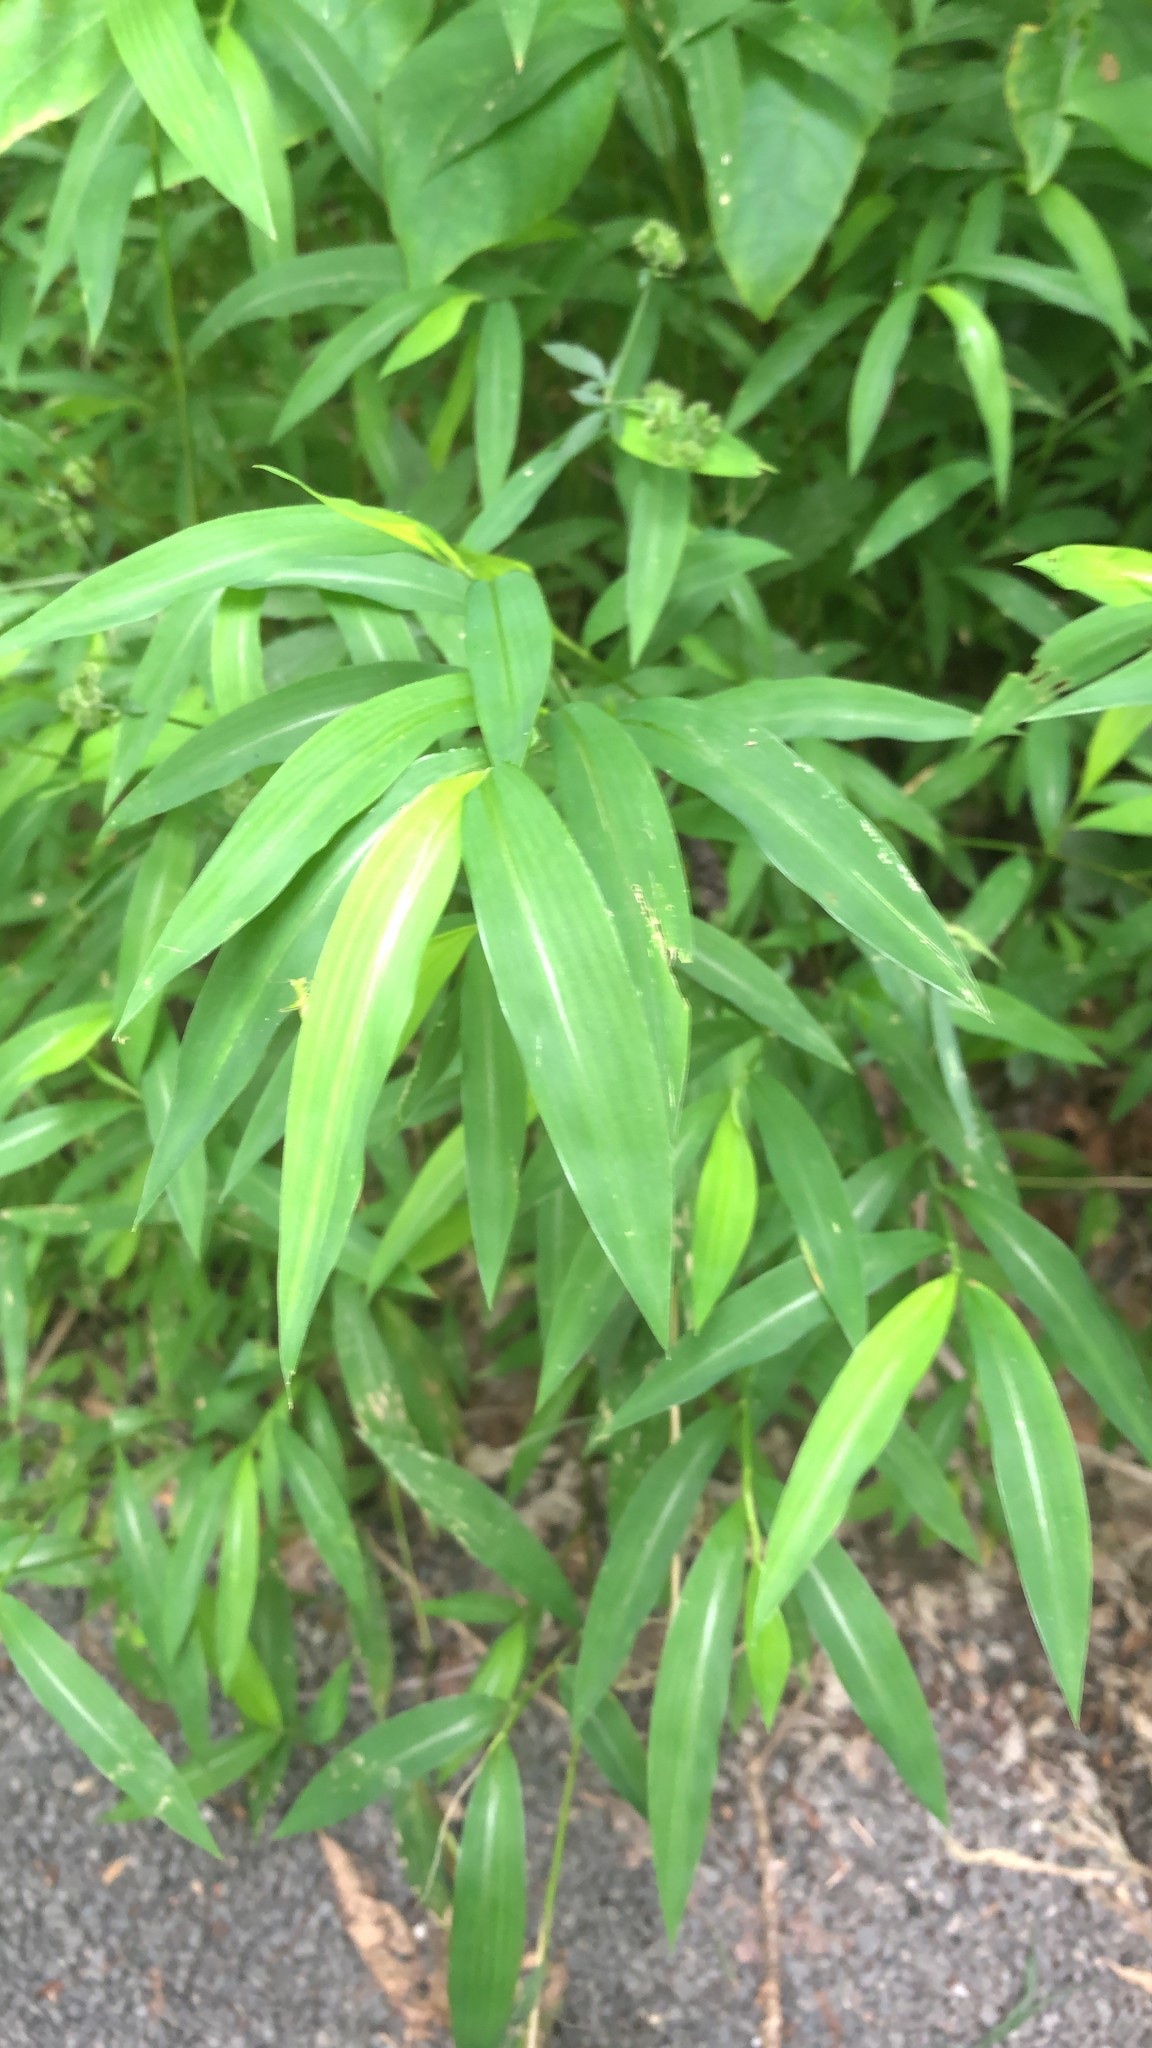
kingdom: Plantae
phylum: Tracheophyta
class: Liliopsida
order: Poales
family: Poaceae
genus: Microstegium
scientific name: Microstegium vimineum
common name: Japanese stiltgrass
